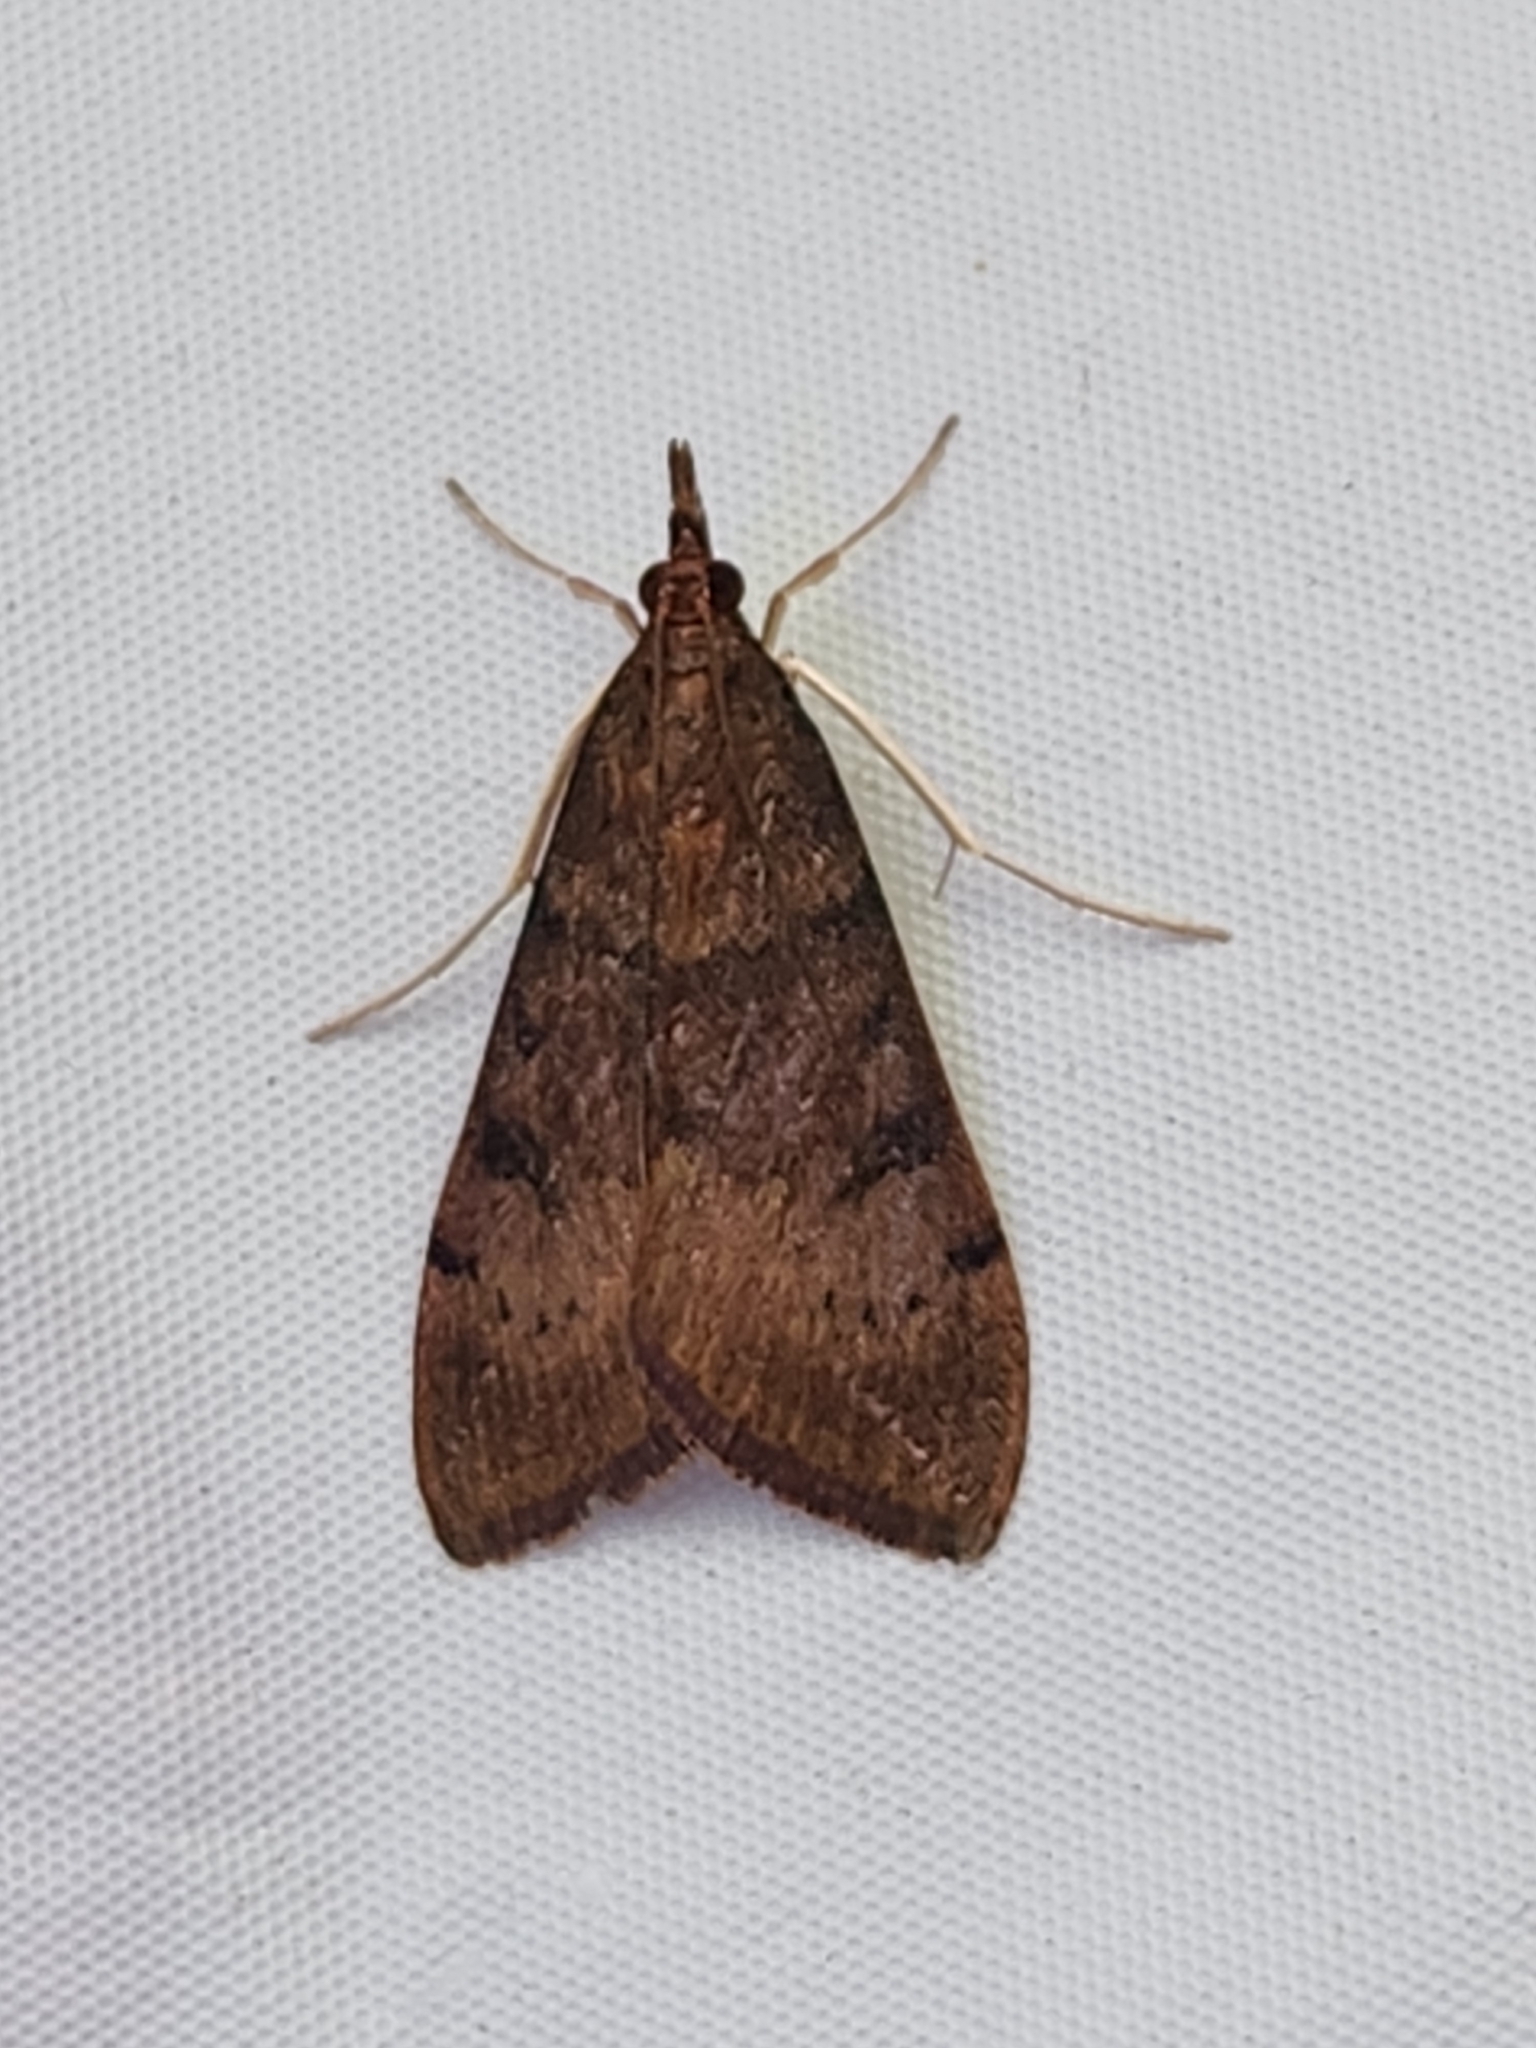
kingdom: Animalia
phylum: Arthropoda
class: Insecta
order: Lepidoptera
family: Crambidae
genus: Uresiphita
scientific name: Uresiphita reversalis
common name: Genista broom moth
